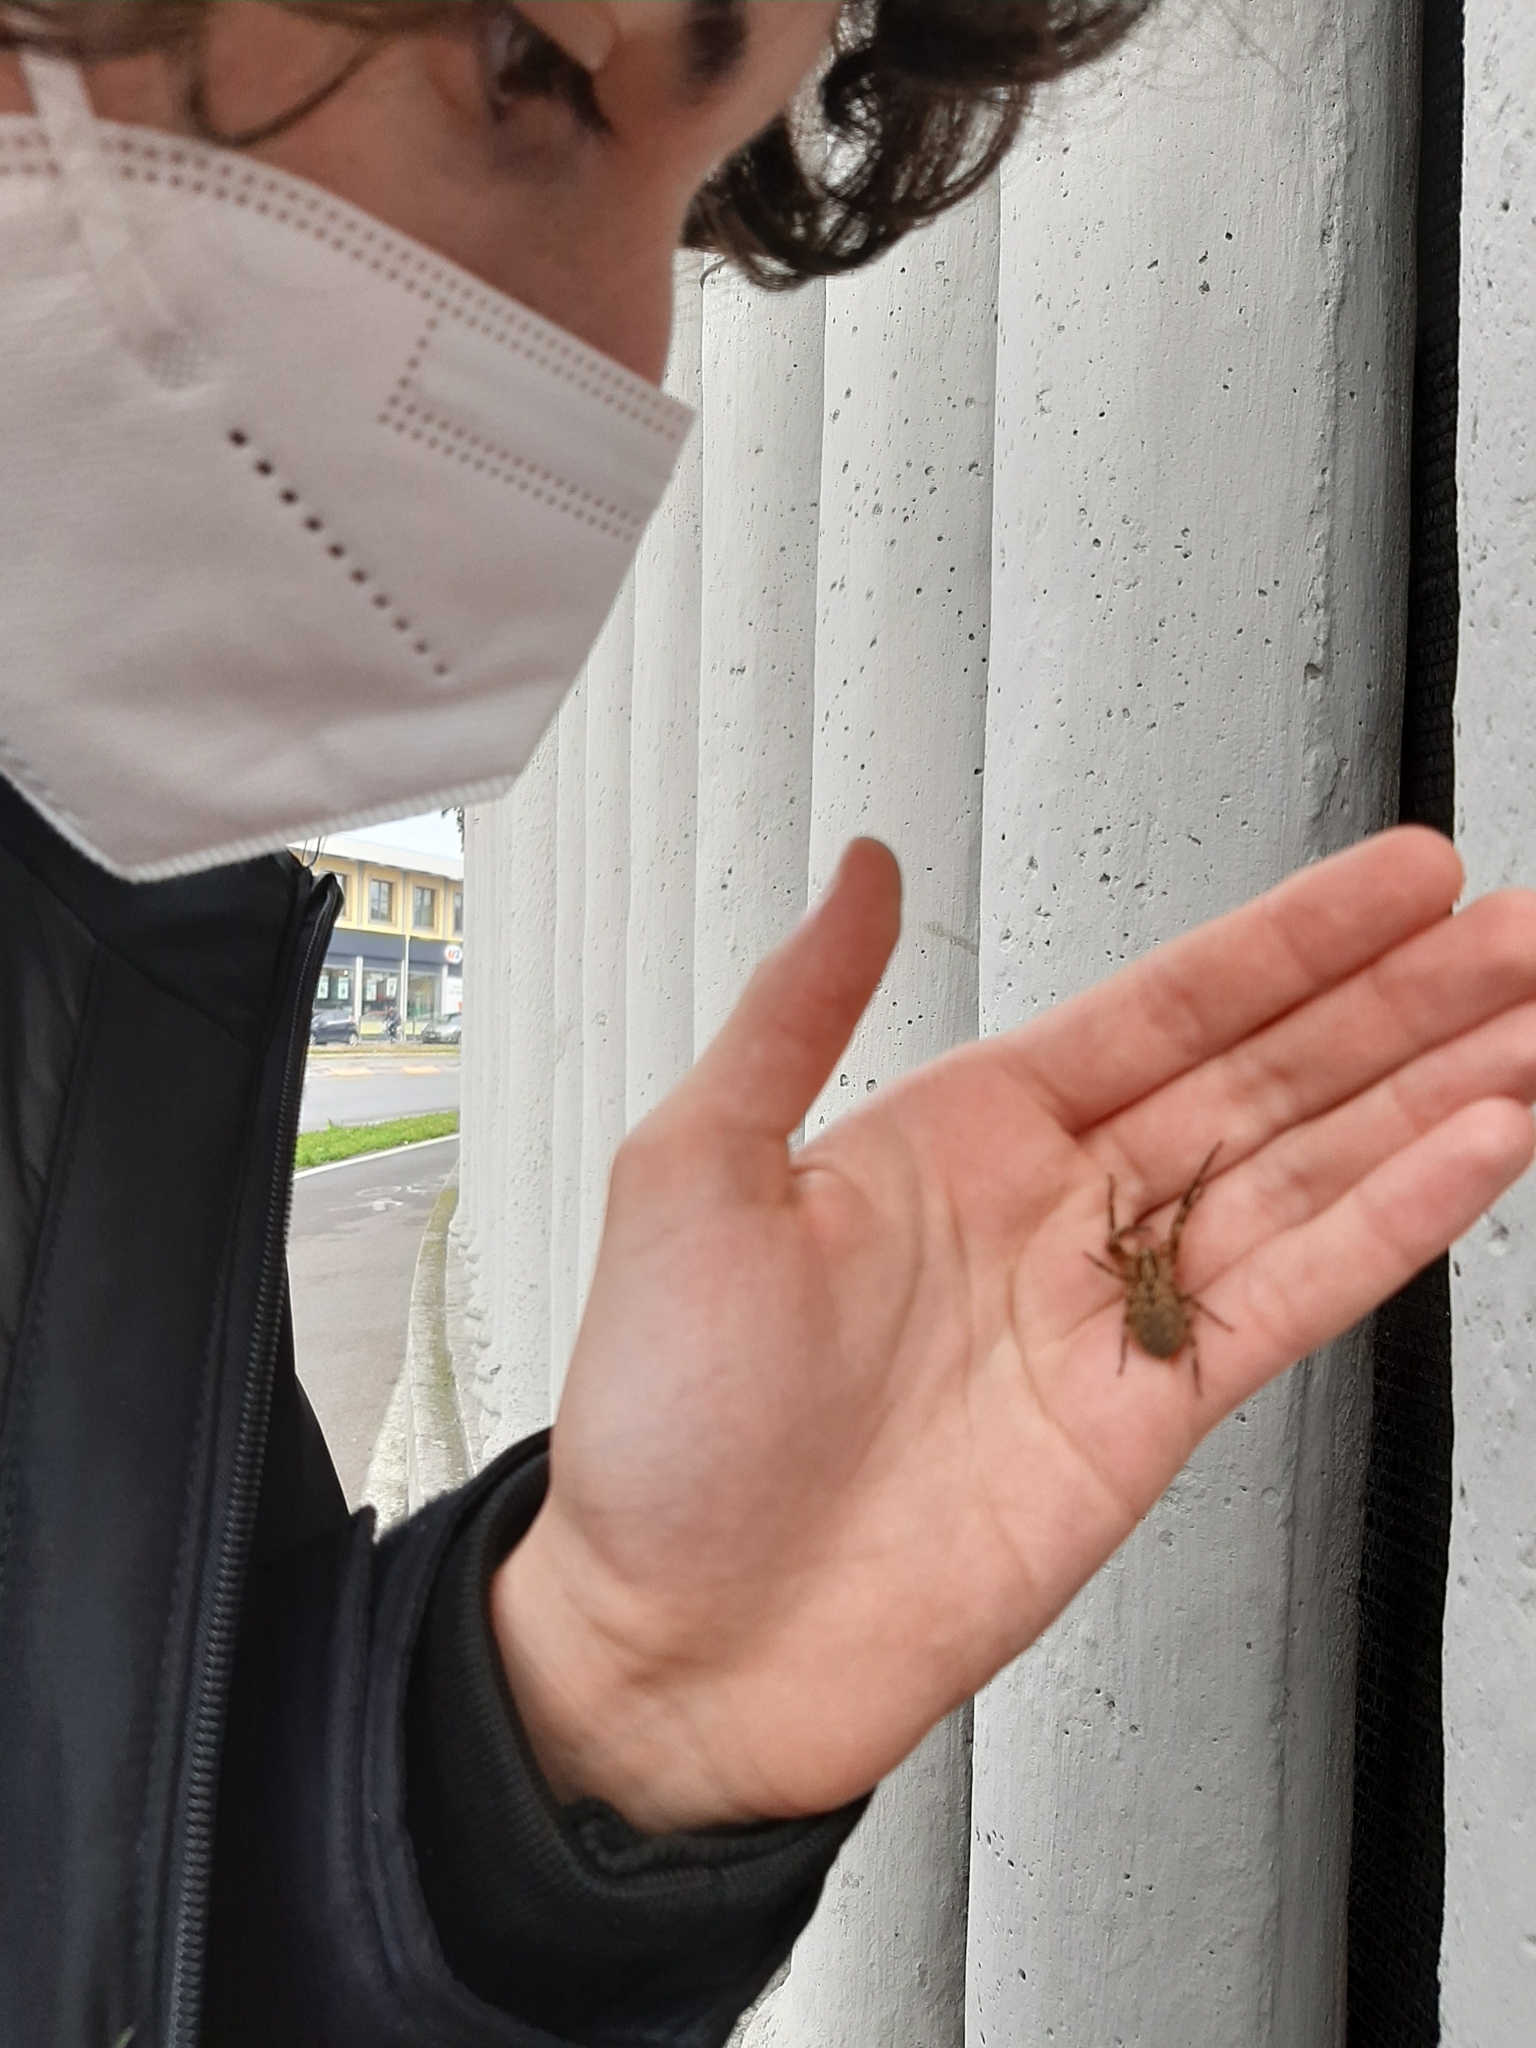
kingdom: Animalia
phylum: Arthropoda
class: Arachnida
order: Araneae
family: Zoropsidae
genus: Zoropsis
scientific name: Zoropsis spinimana
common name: Zoropsid spider
